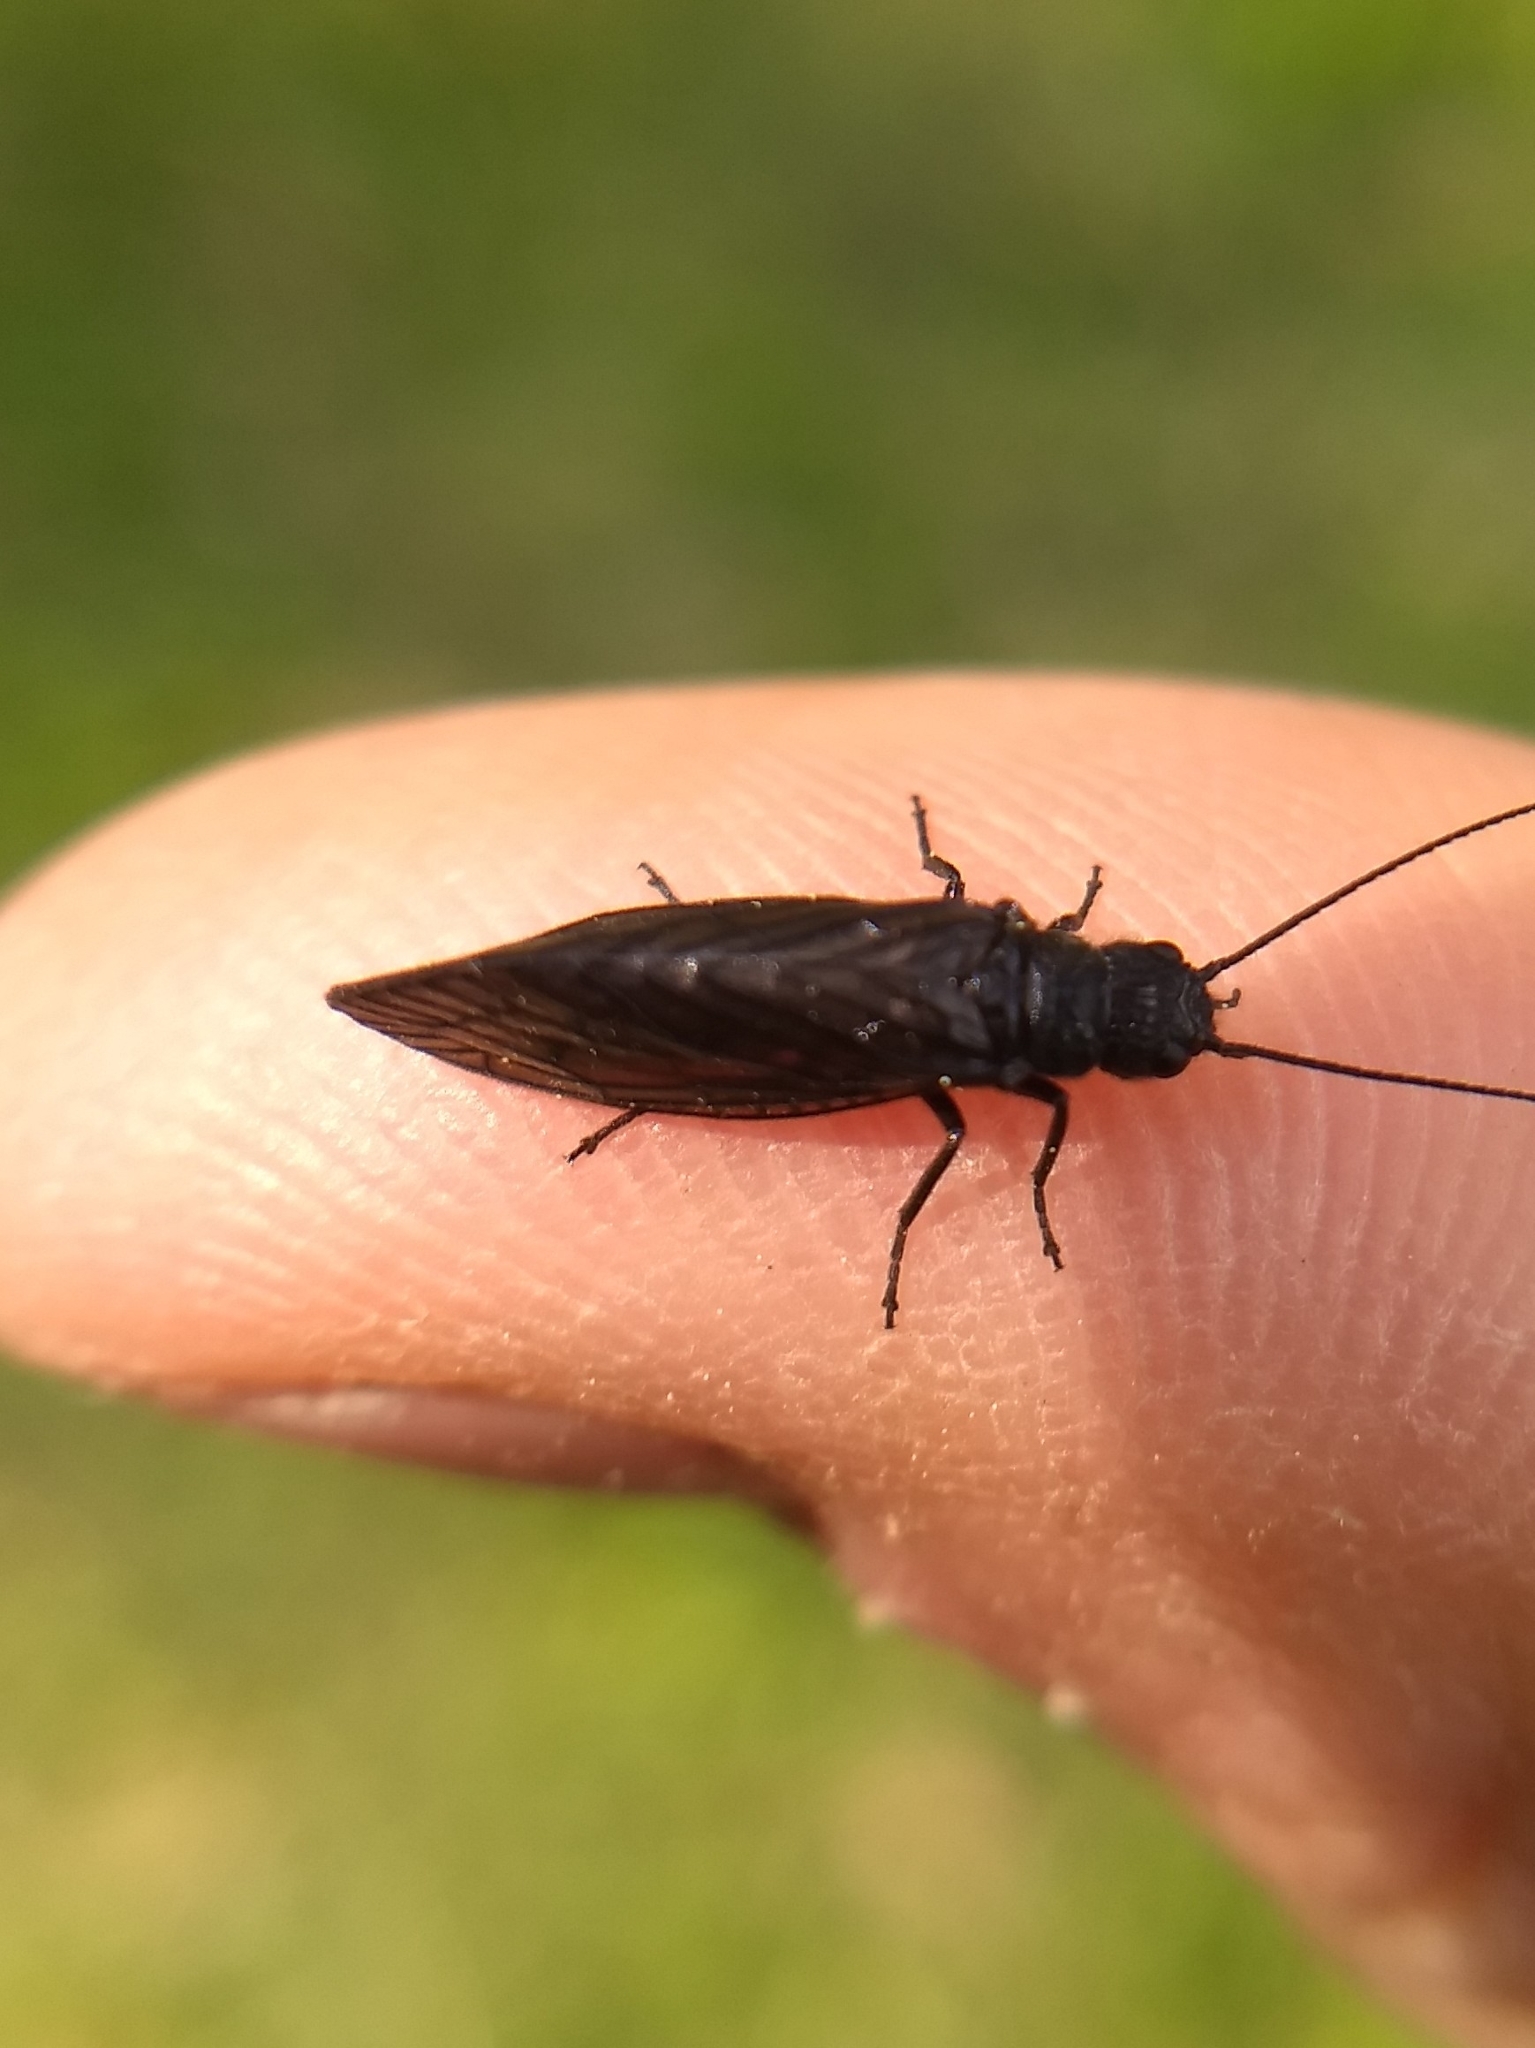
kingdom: Animalia
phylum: Arthropoda
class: Insecta
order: Megaloptera
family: Sialidae
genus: Sialis
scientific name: Sialis
